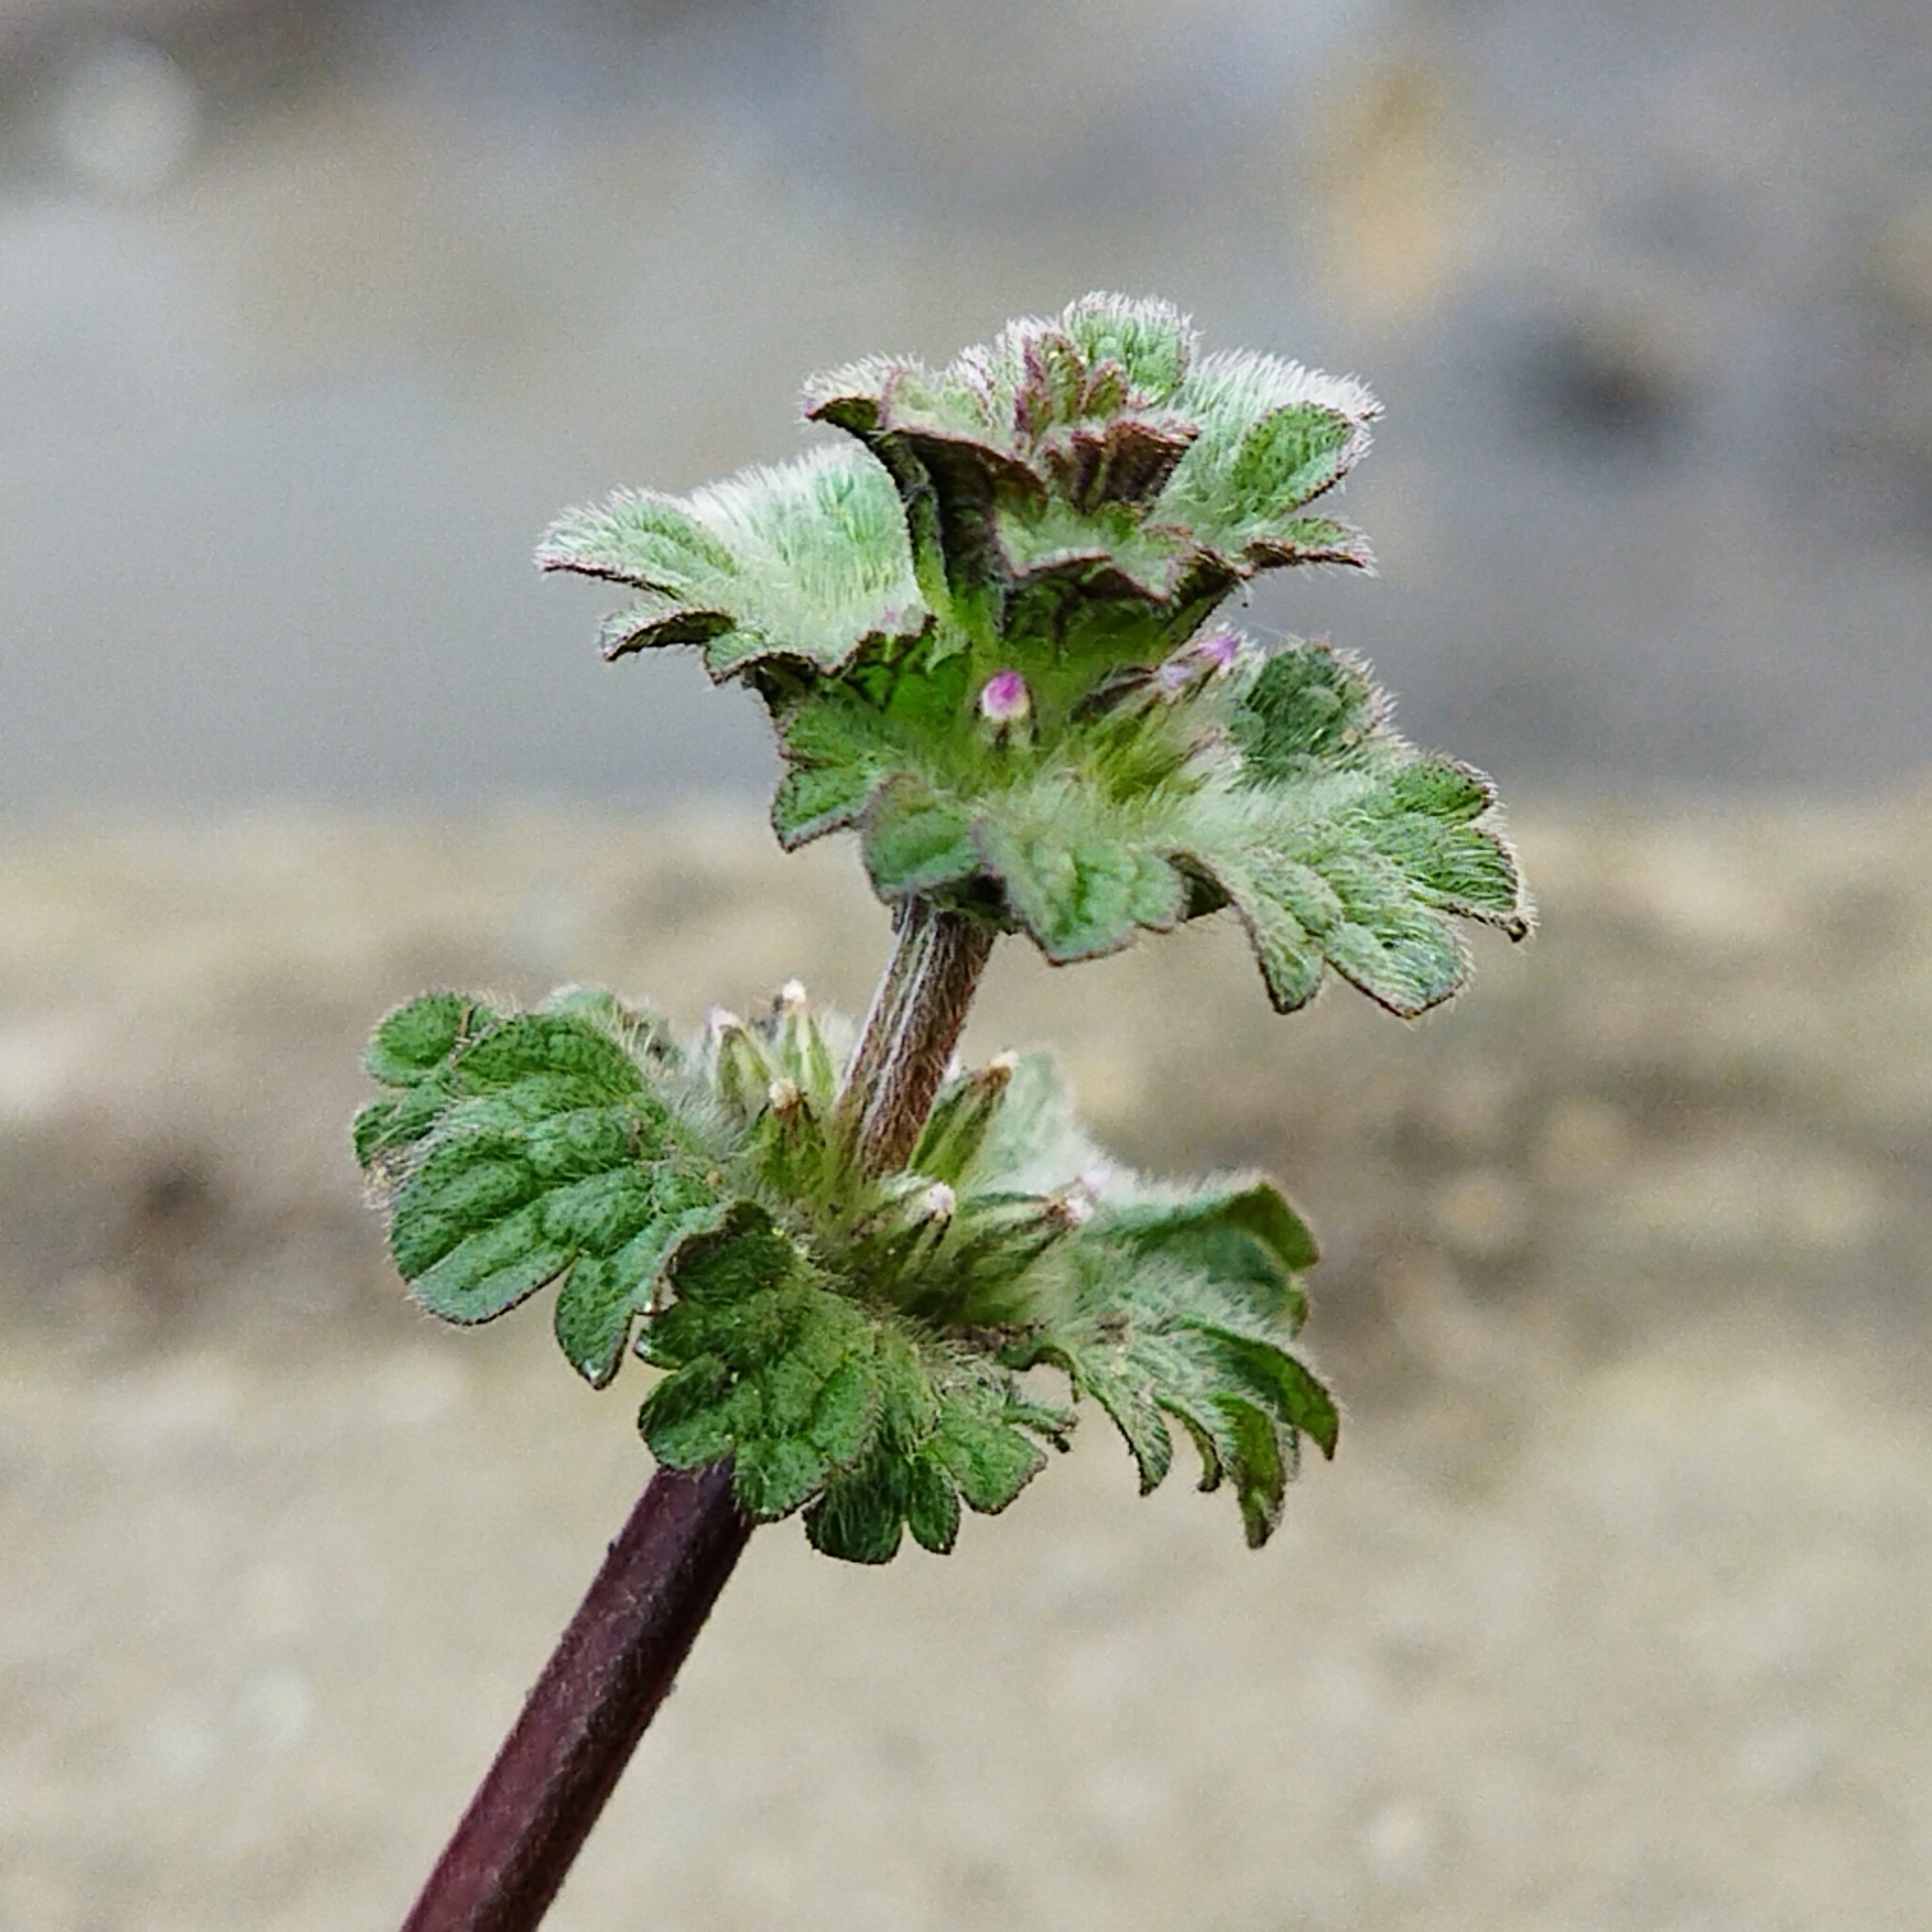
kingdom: Plantae
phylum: Tracheophyta
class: Magnoliopsida
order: Lamiales
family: Lamiaceae
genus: Lamium
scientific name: Lamium amplexicaule
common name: Henbit dead-nettle
